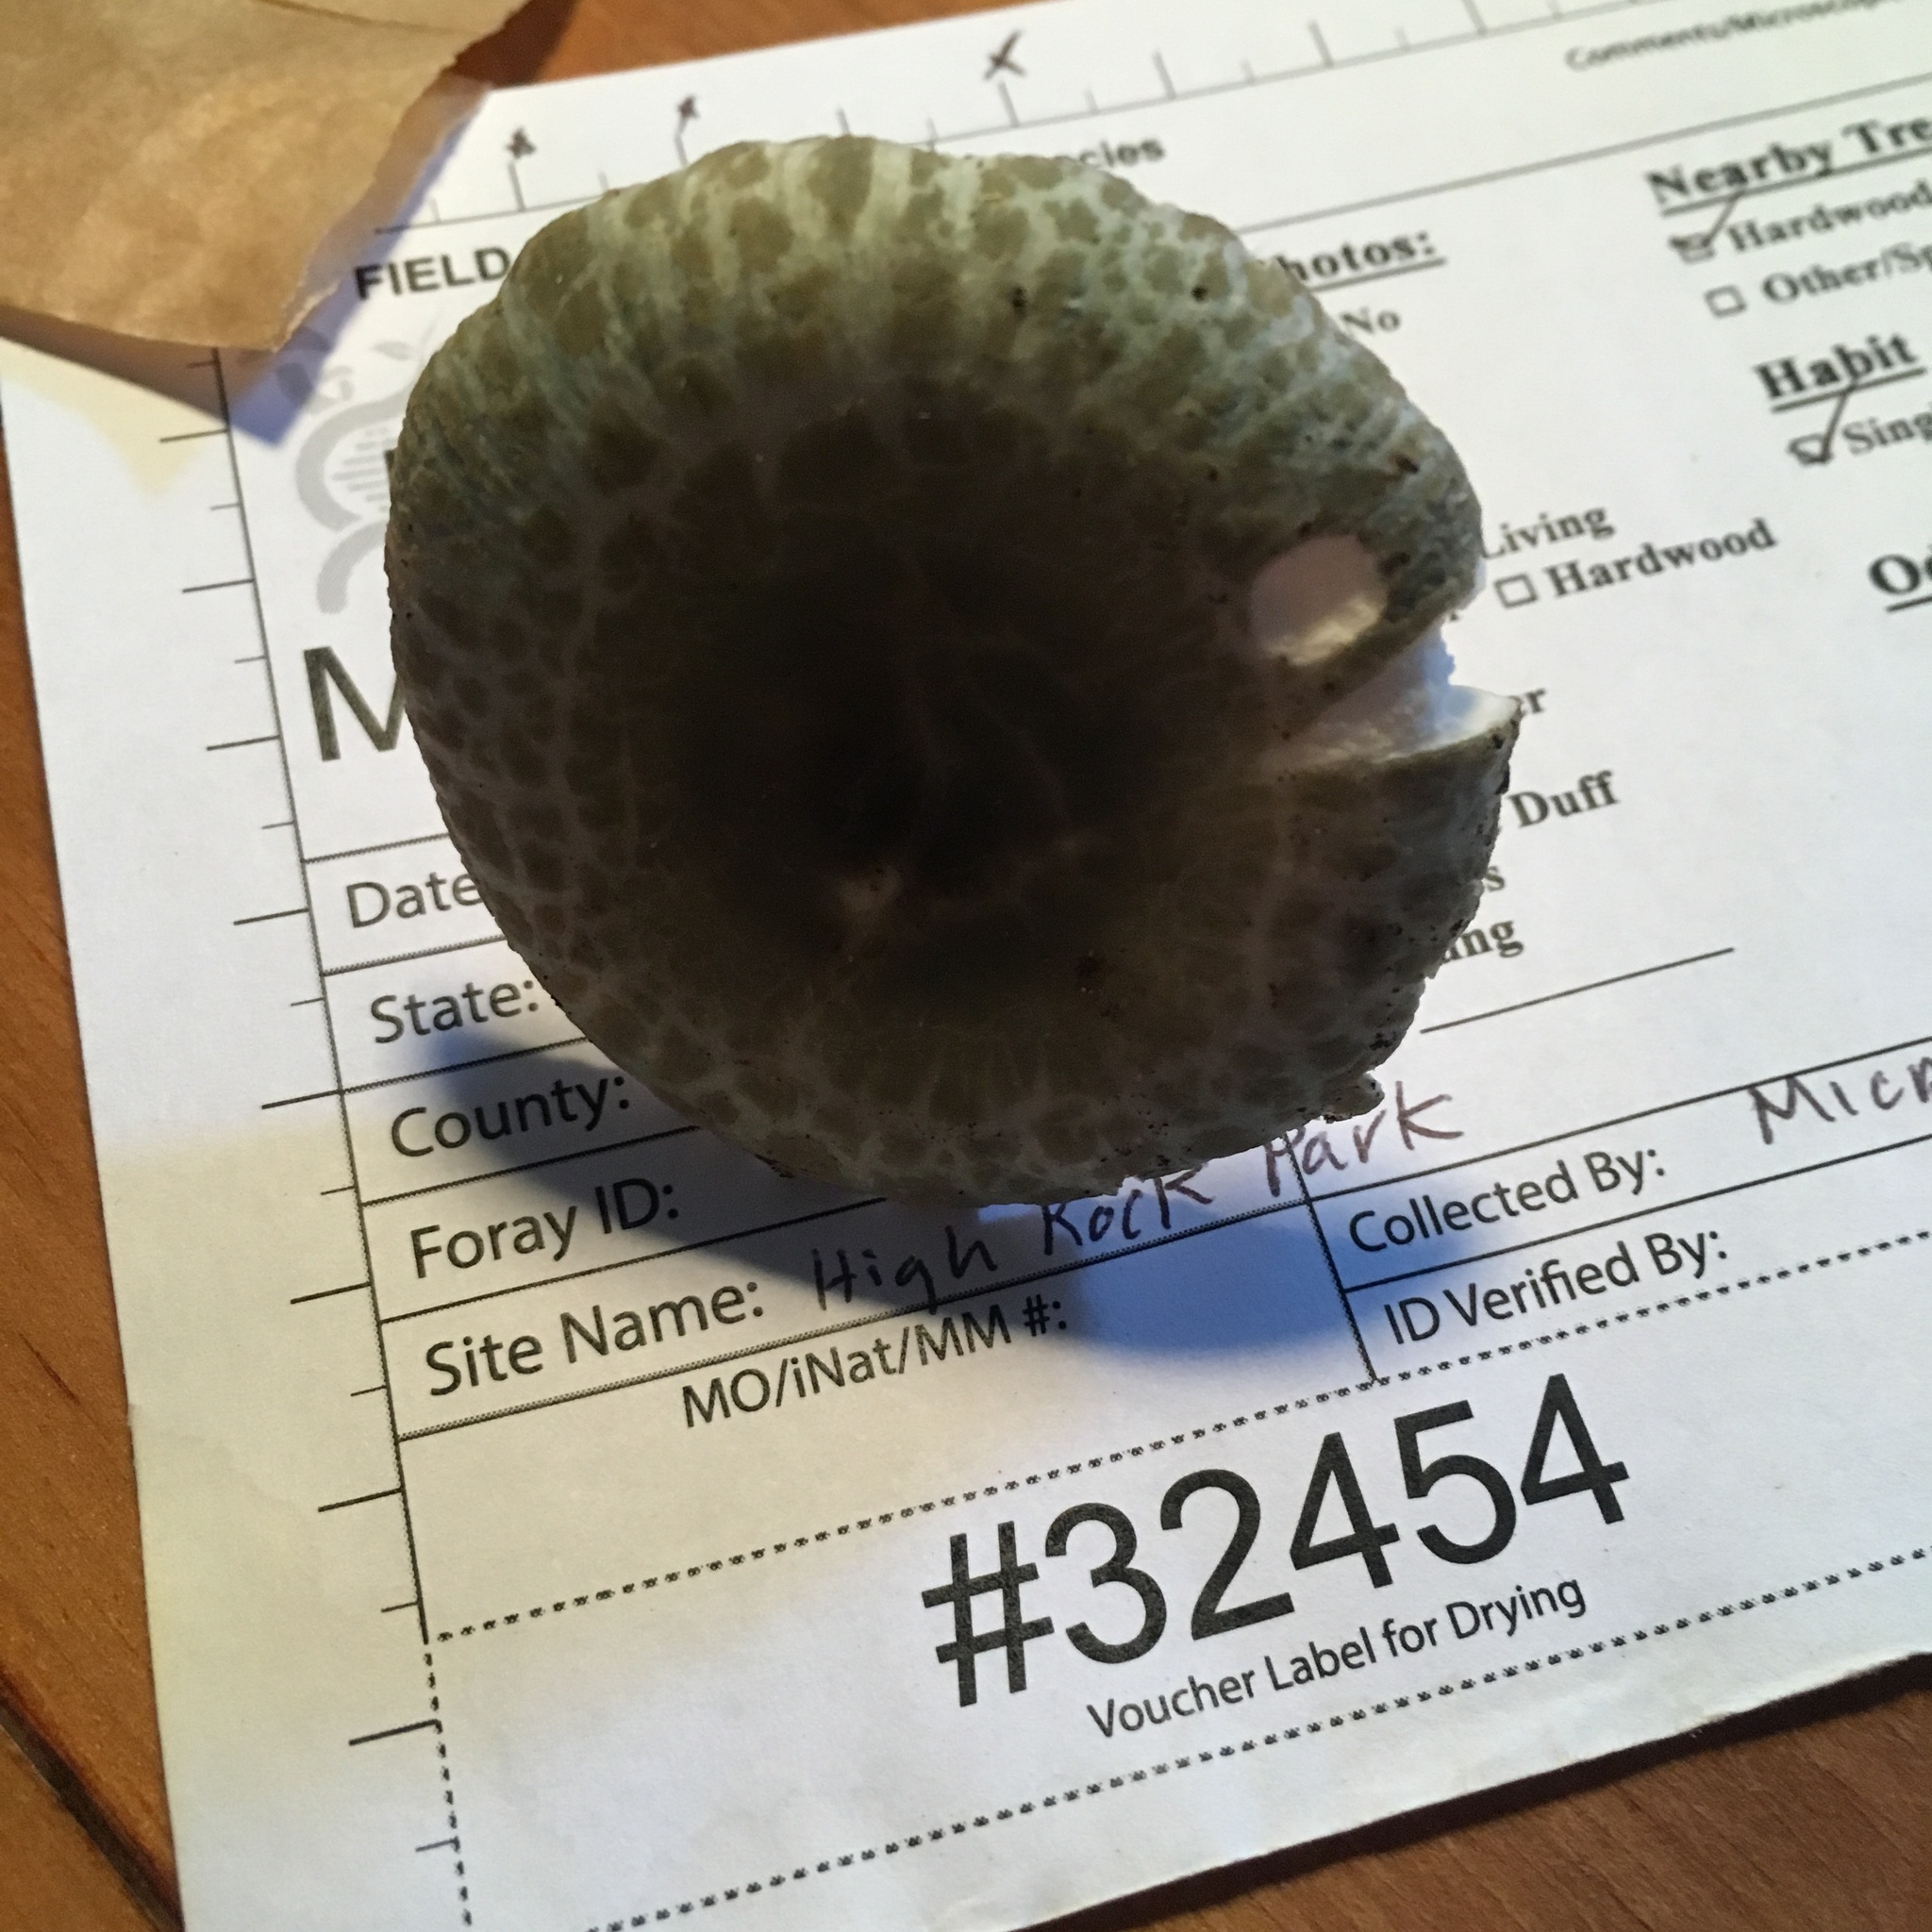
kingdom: Fungi
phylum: Basidiomycota
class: Agaricomycetes
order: Russulales
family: Russulaceae
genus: Russula
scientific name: Russula parvovirescens
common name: Blue-green cracking russula
